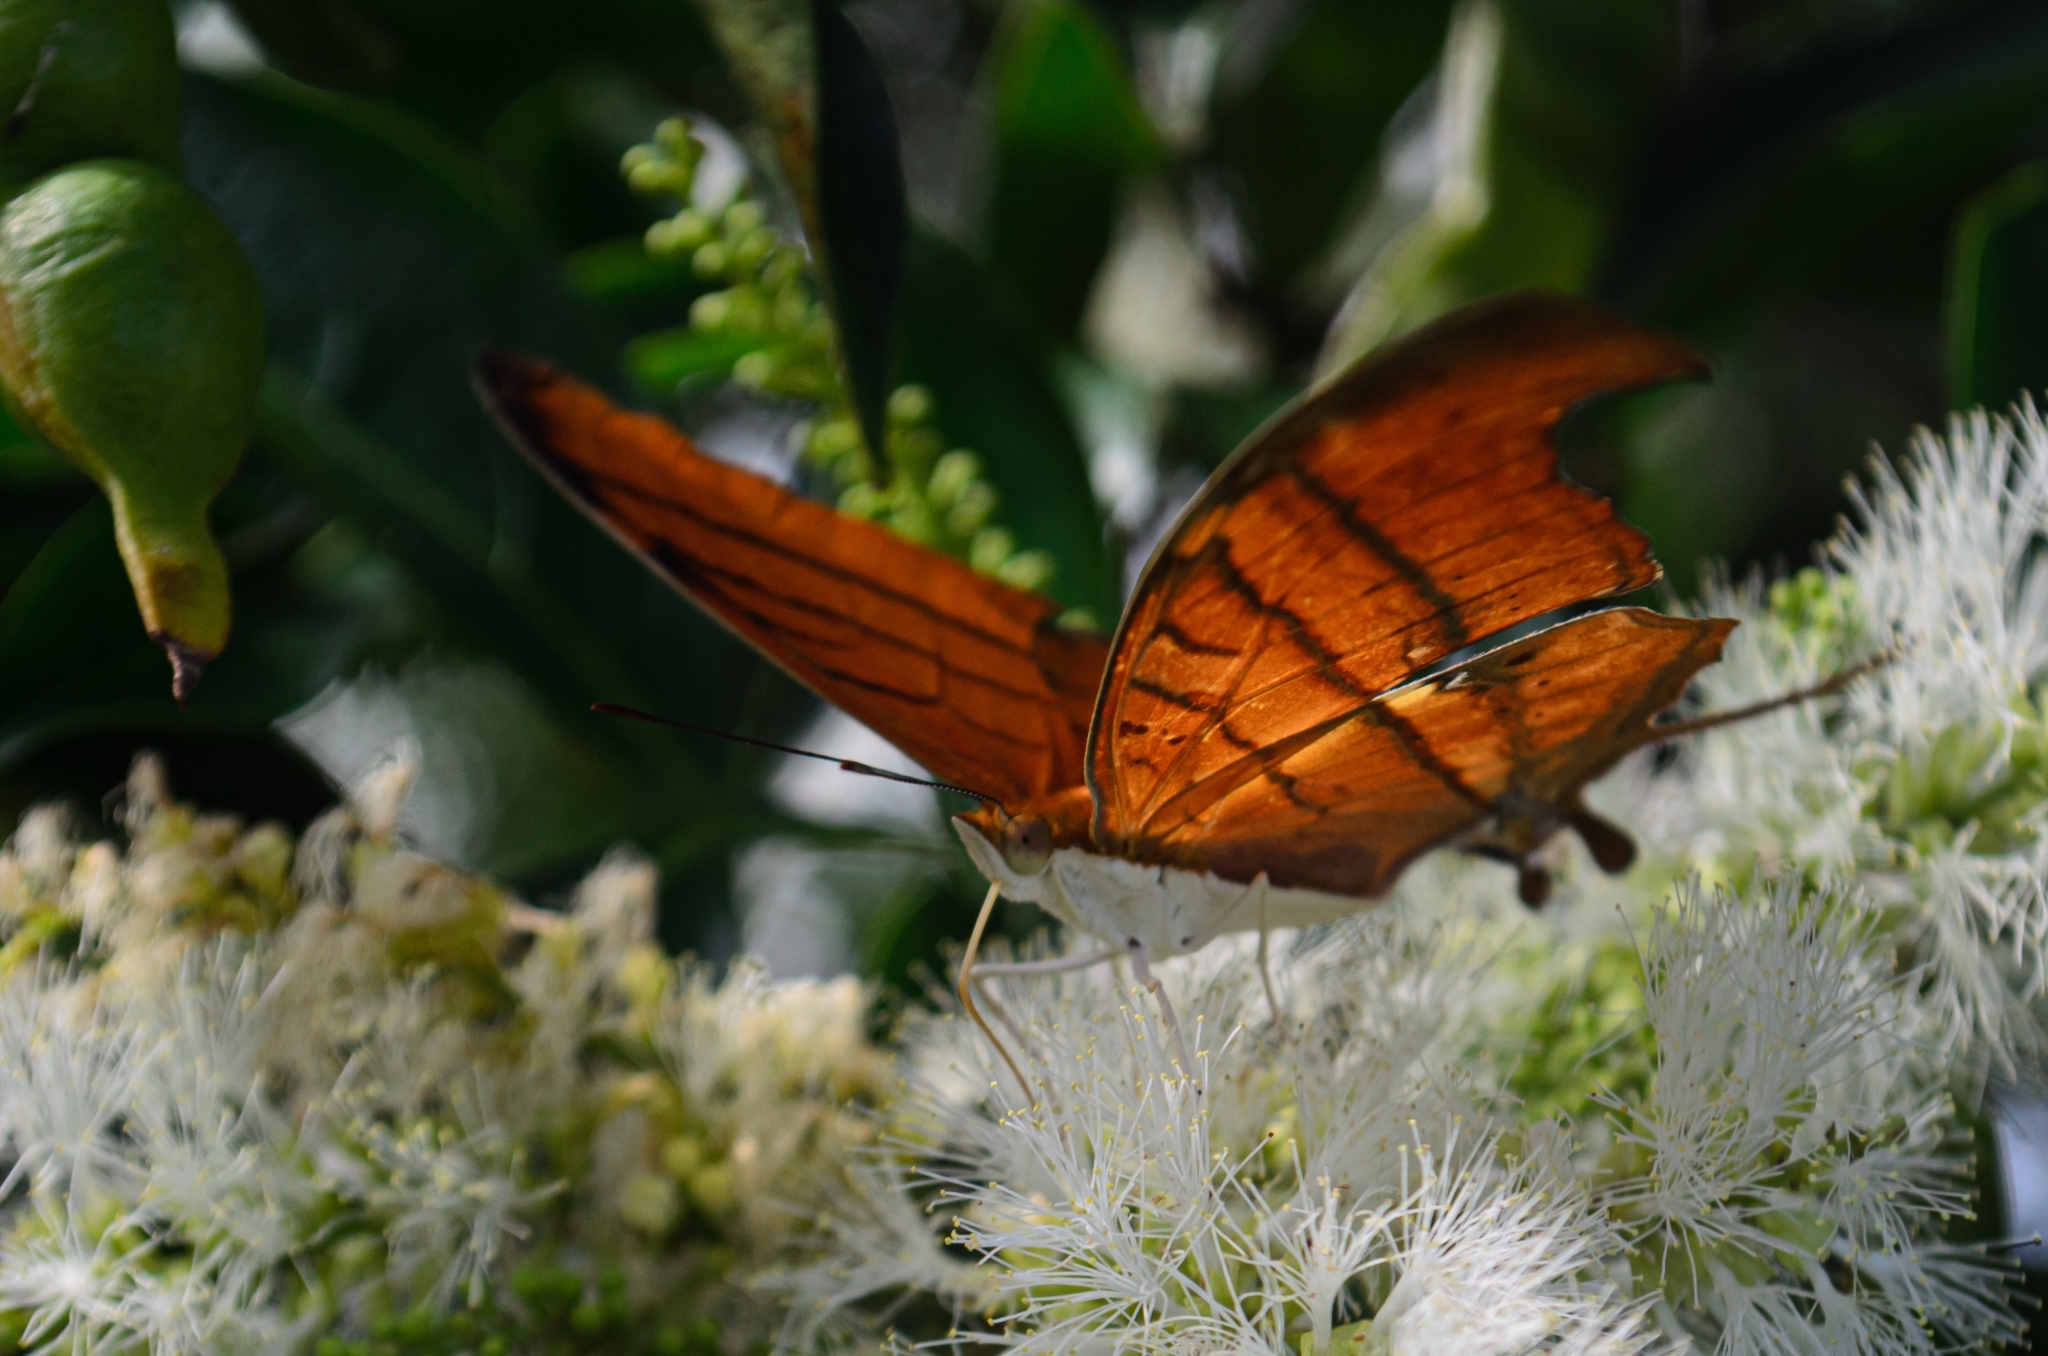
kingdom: Animalia
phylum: Arthropoda
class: Insecta
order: Lepidoptera
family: Nymphalidae
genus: Marpesia
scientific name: Marpesia petreus
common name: Red dagger wing
